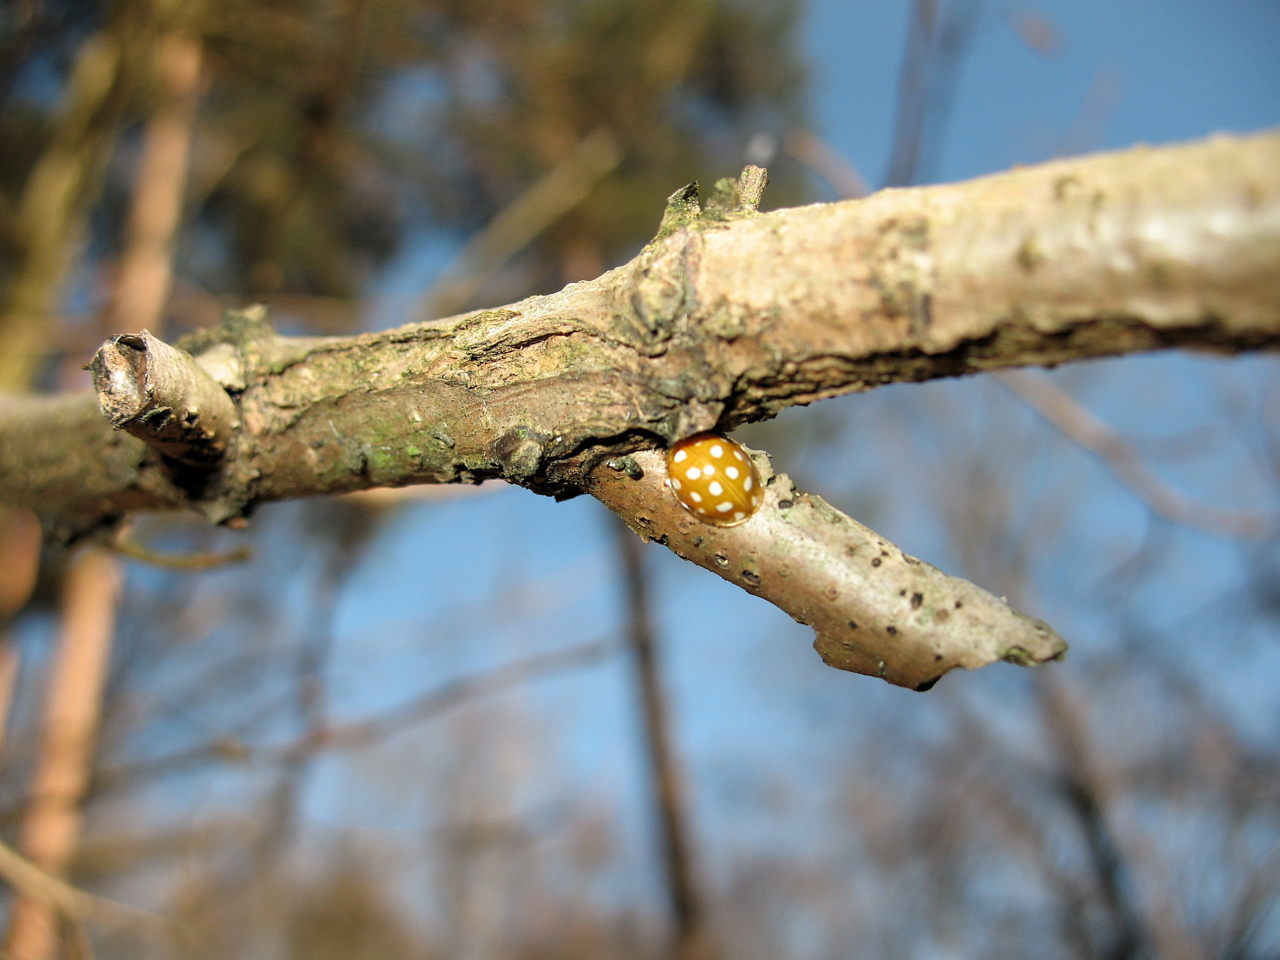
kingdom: Animalia
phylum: Arthropoda
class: Insecta
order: Coleoptera
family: Coccinellidae
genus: Halyzia
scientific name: Halyzia sedecimguttata
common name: Orange ladybird
